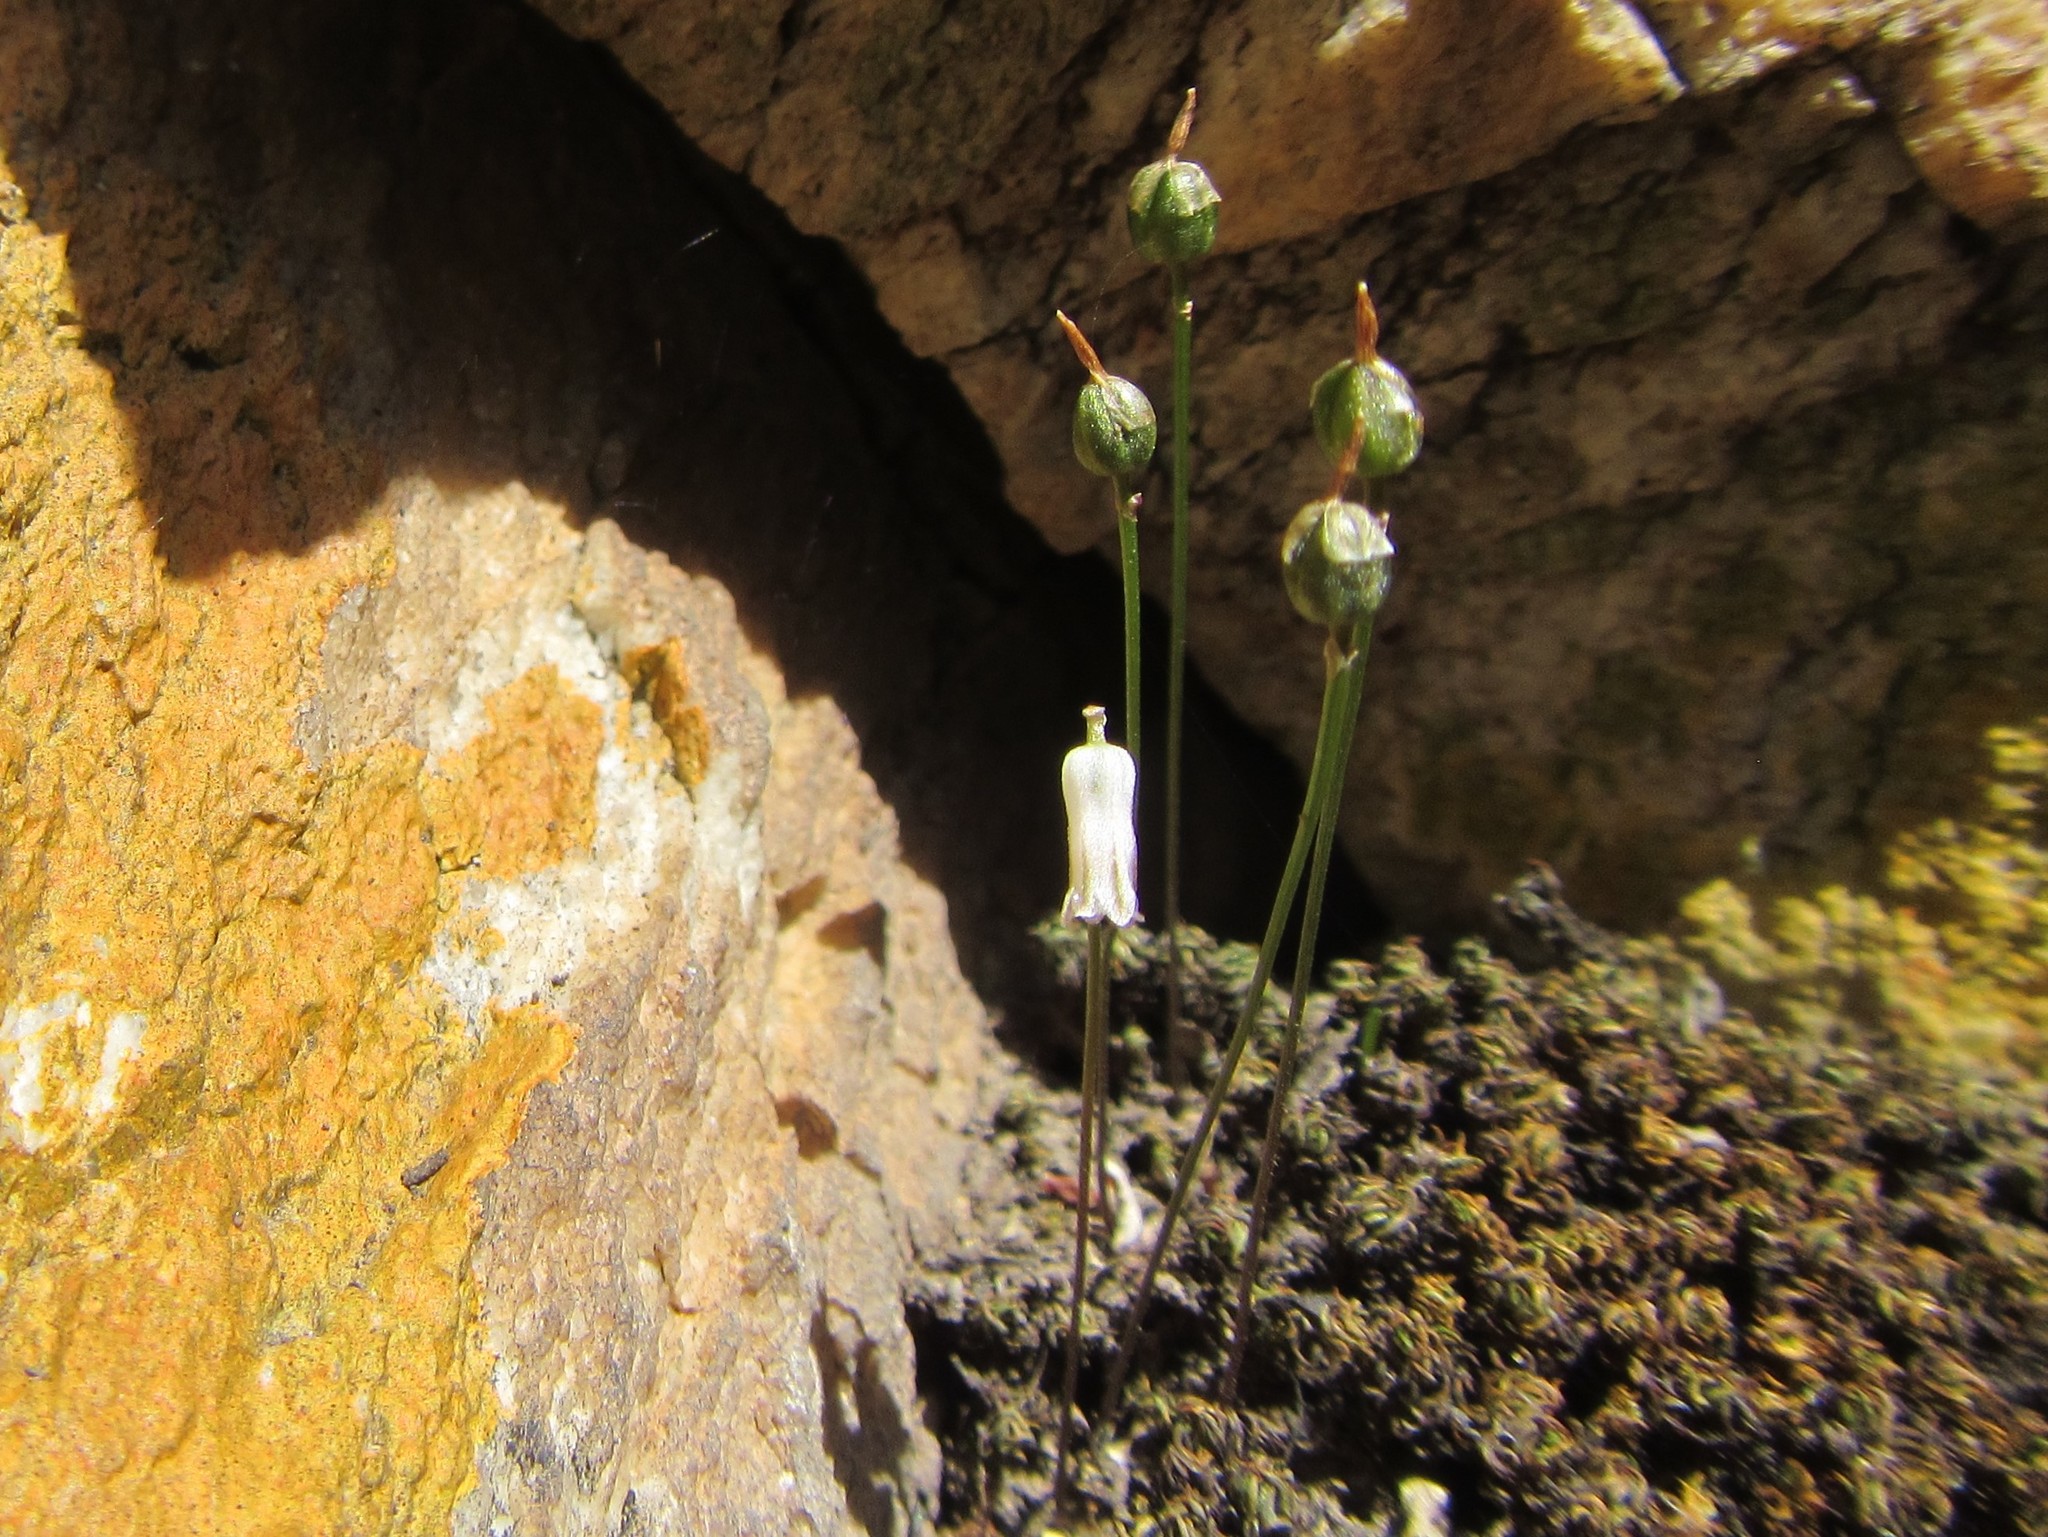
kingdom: Plantae
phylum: Tracheophyta
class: Liliopsida
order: Asparagales
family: Asparagaceae
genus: Drimia
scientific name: Drimia uniflora
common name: Fairy bell
